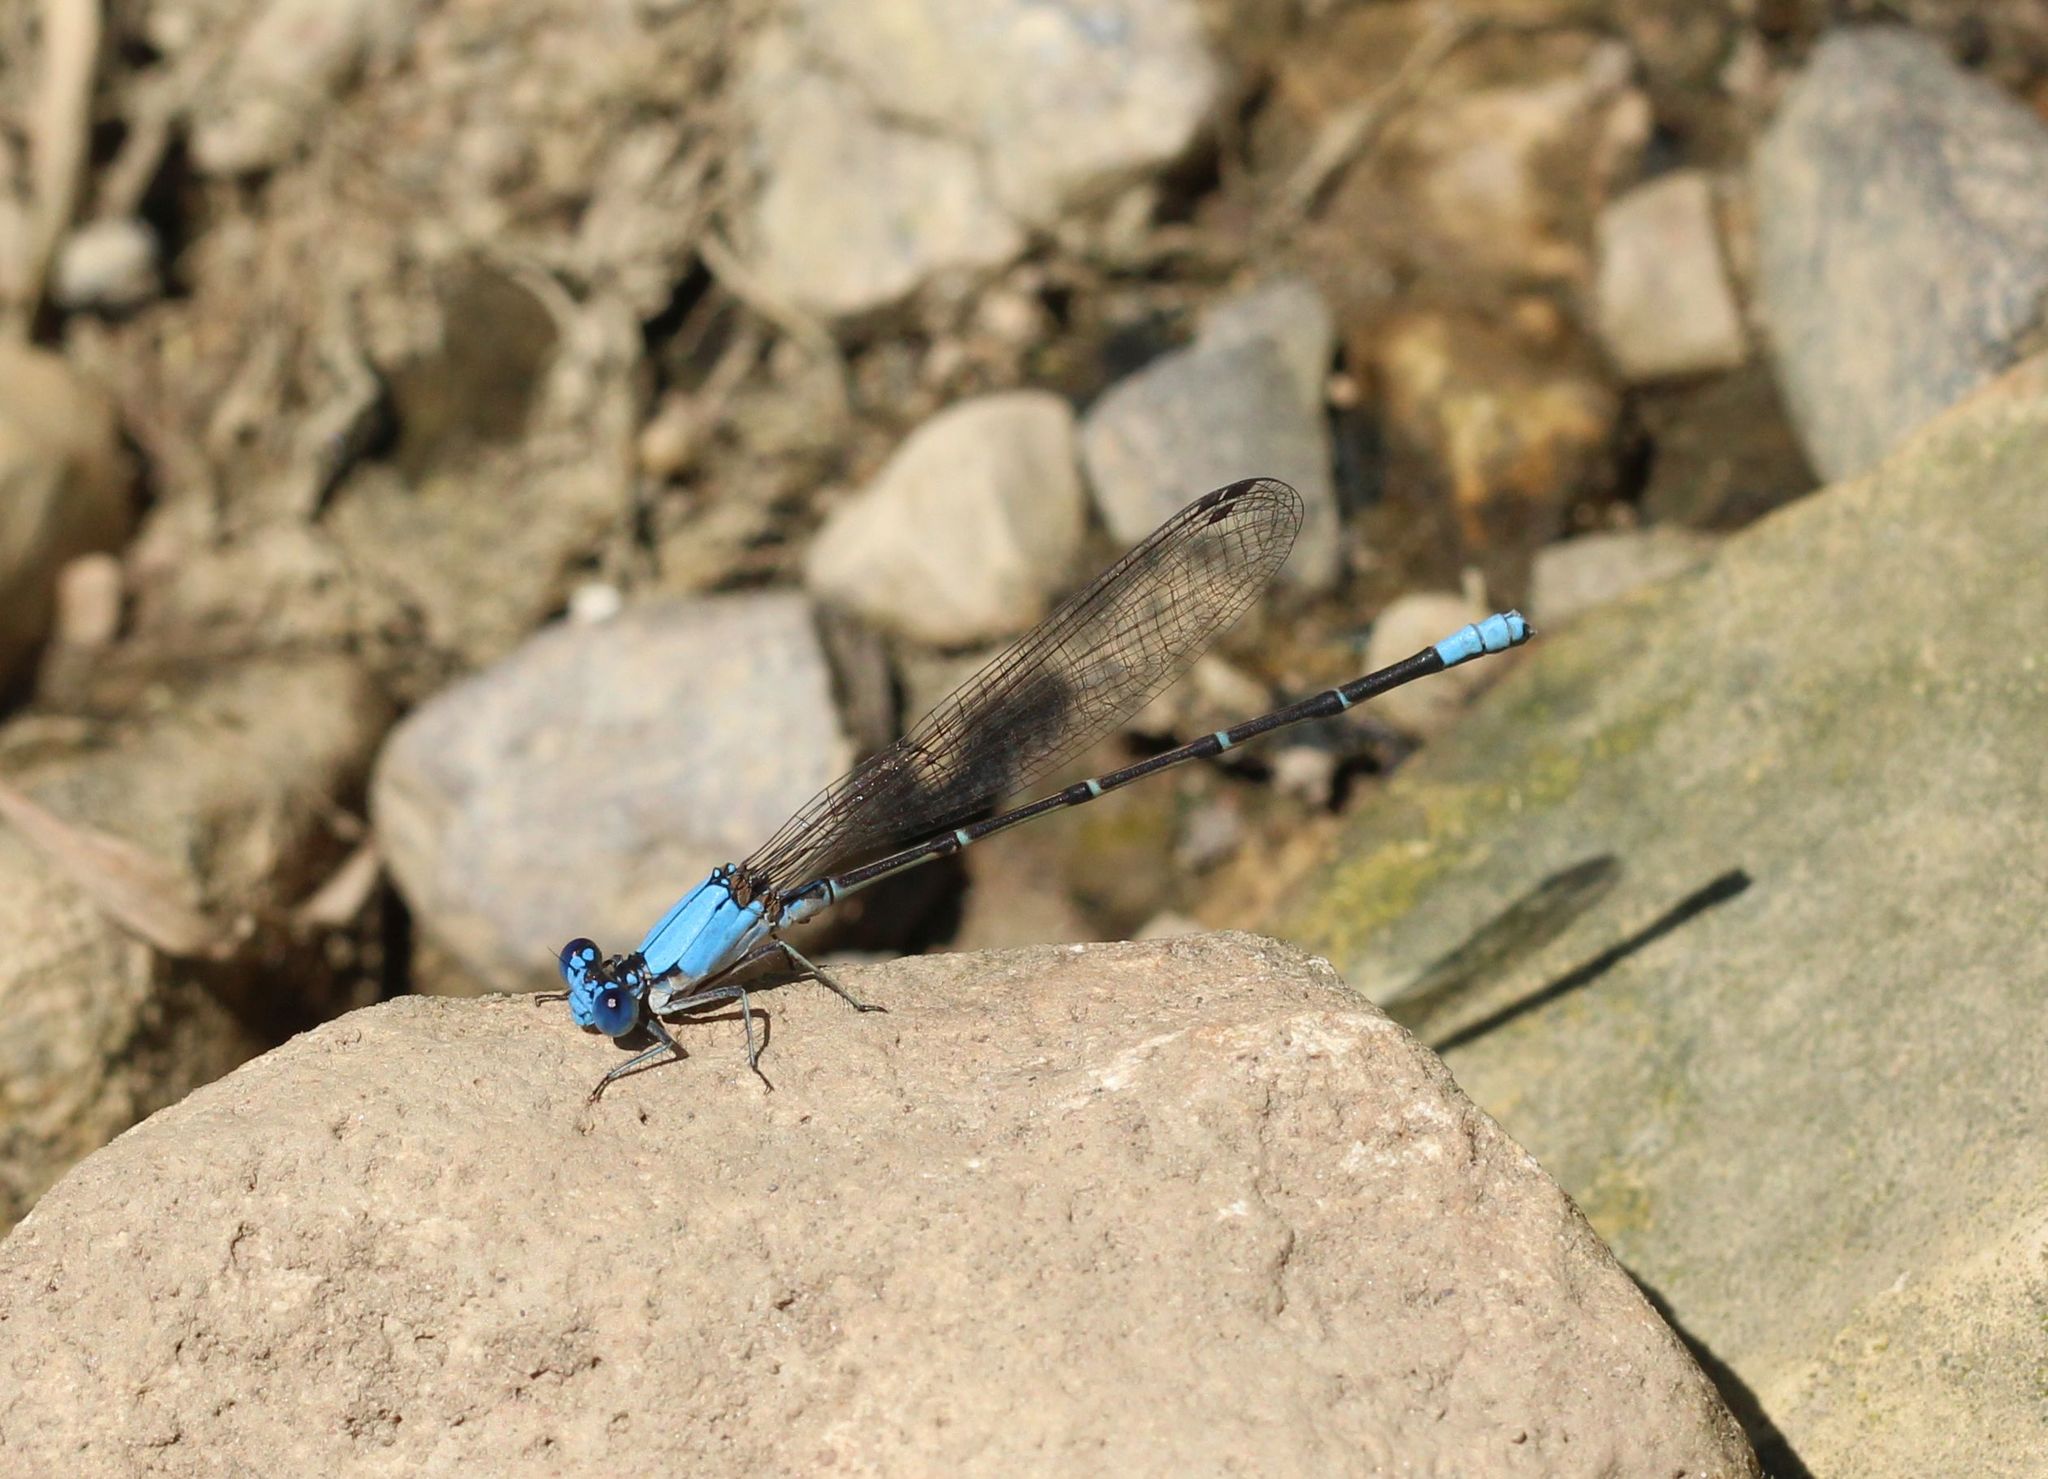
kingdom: Animalia
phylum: Arthropoda
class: Insecta
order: Odonata
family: Coenagrionidae
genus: Argia
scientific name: Argia apicalis
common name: Blue-fronted dancer
